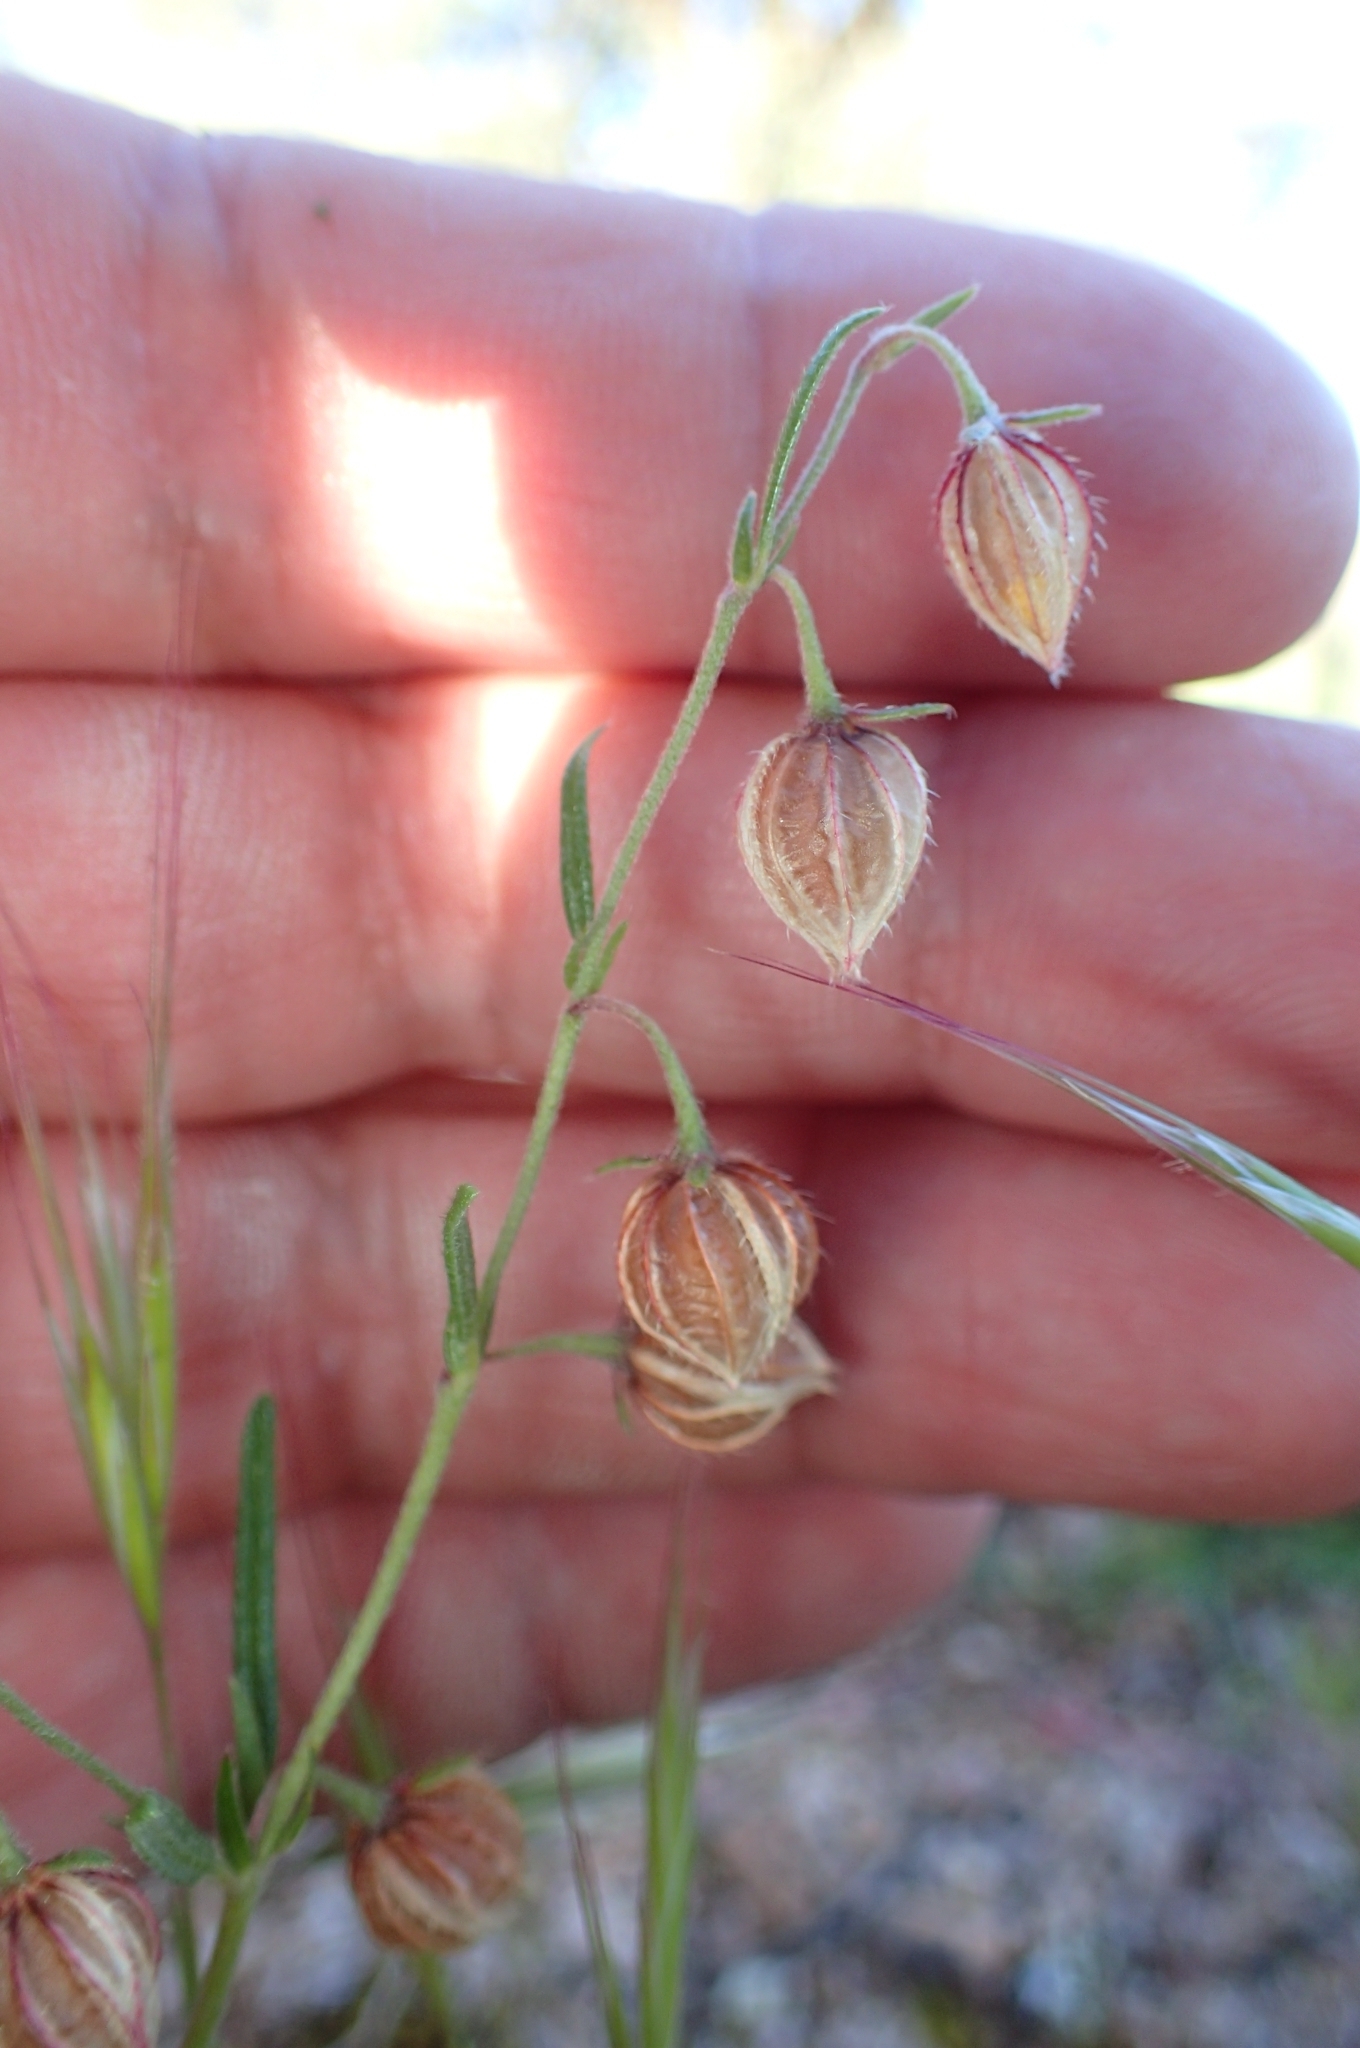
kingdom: Plantae
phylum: Tracheophyta
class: Magnoliopsida
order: Malvales
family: Cistaceae
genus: Helianthemum
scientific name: Helianthemum aegyptiacum
